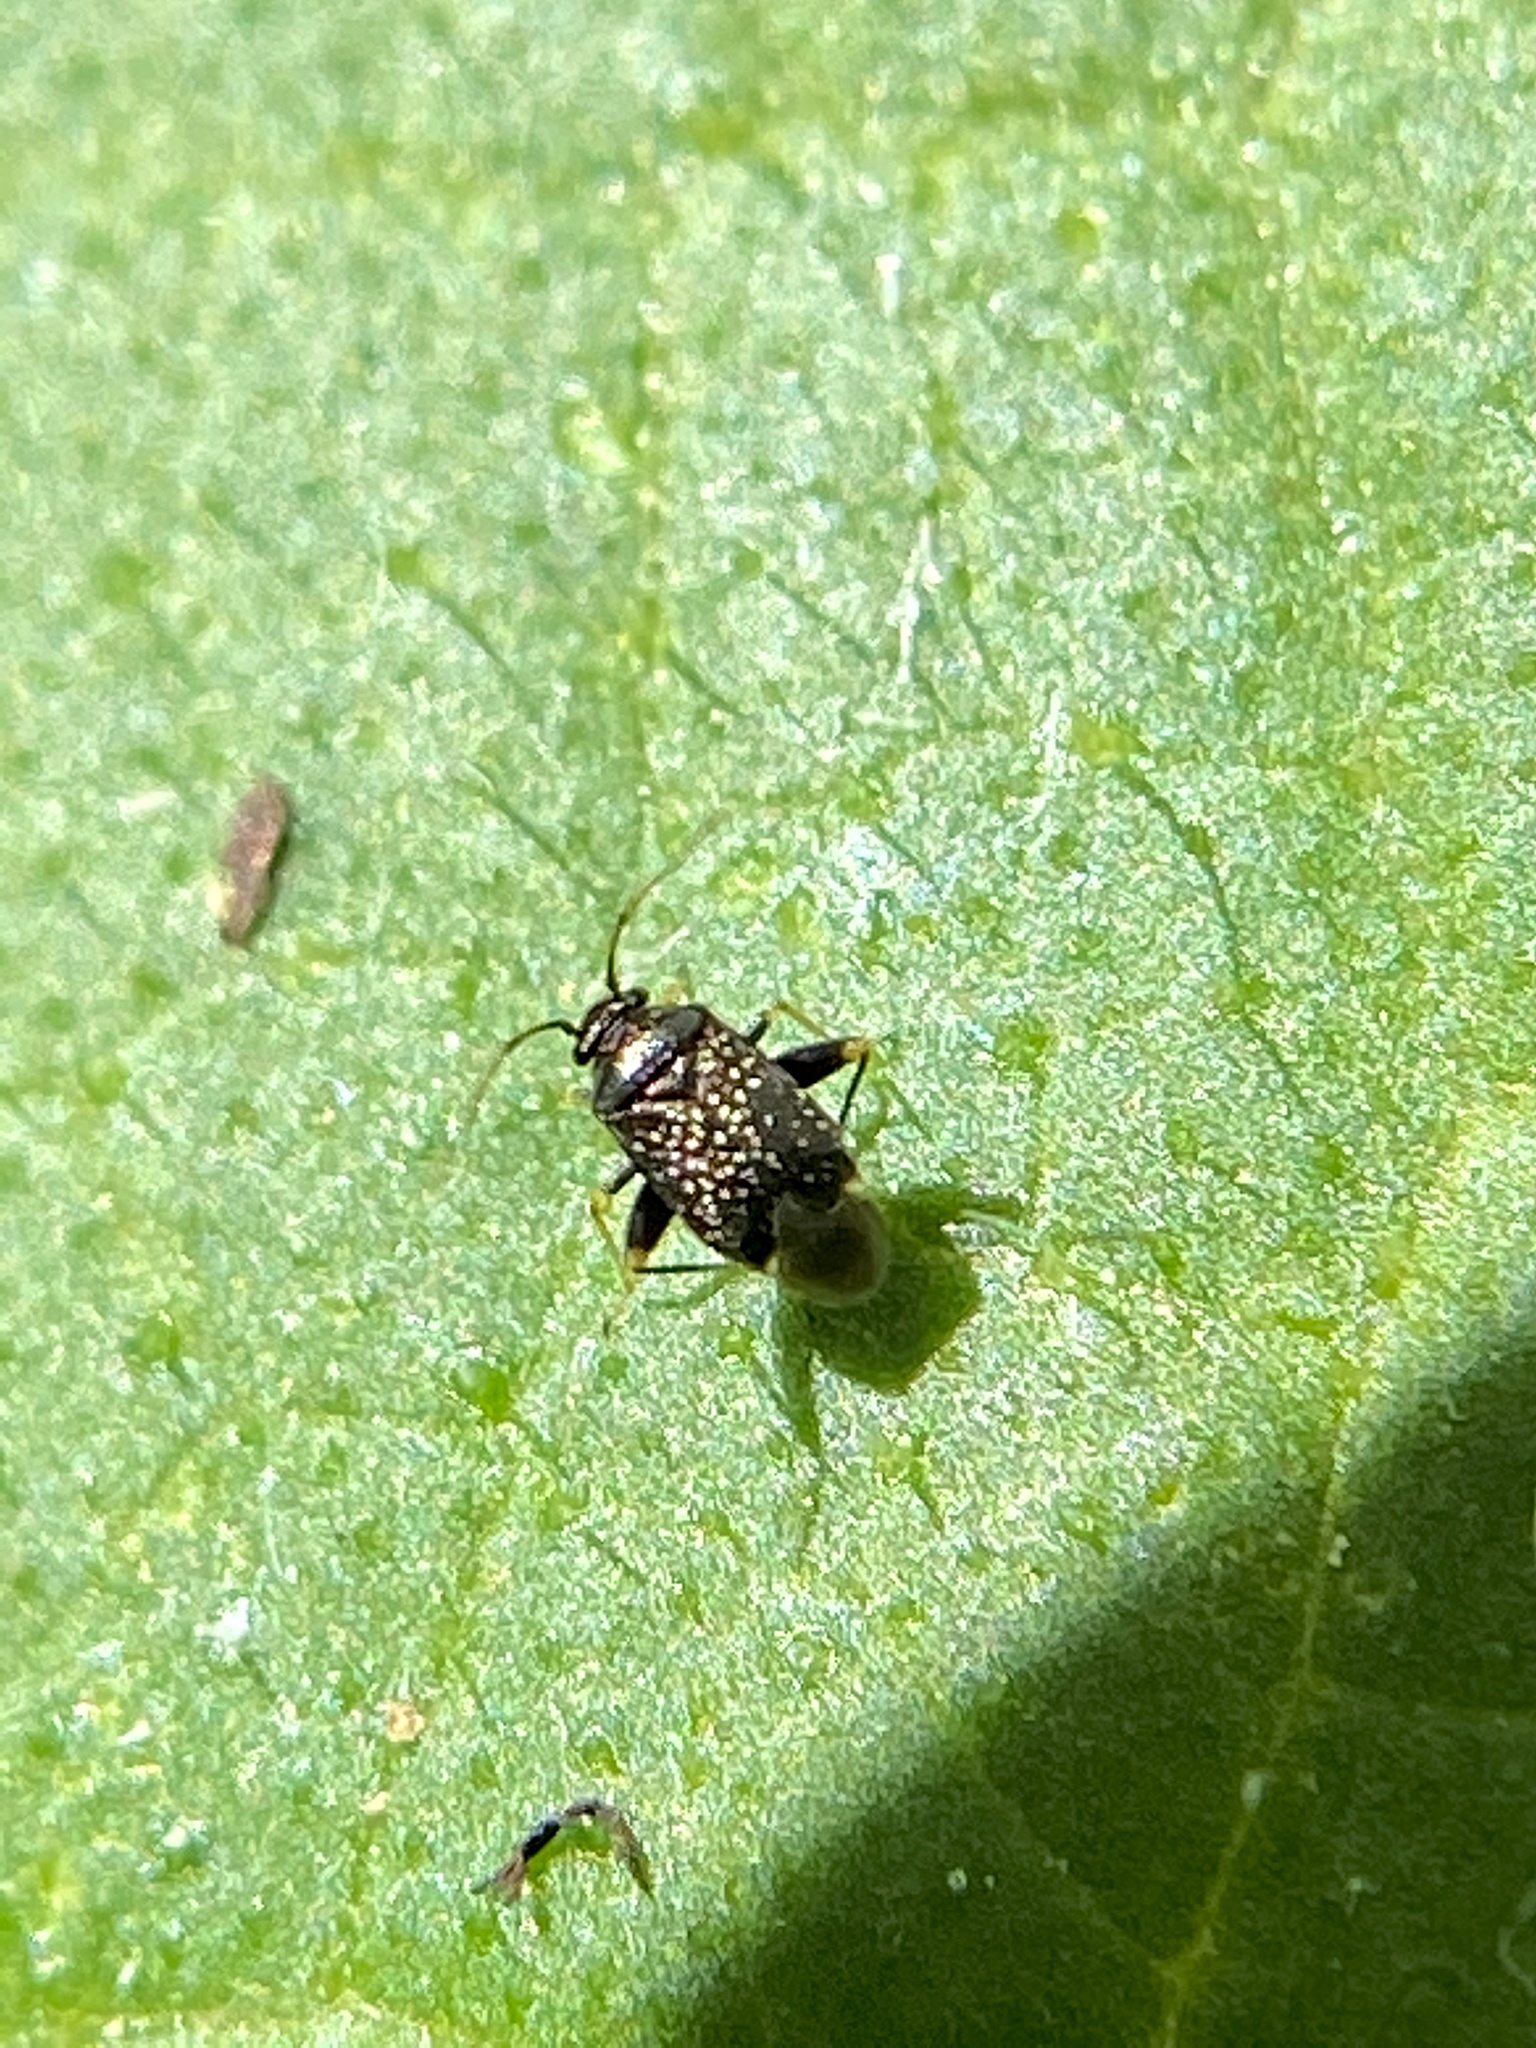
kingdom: Animalia
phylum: Arthropoda
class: Insecta
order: Hemiptera
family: Miridae
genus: Microtechnites
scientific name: Microtechnites bractatus
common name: Garden fleahopper
